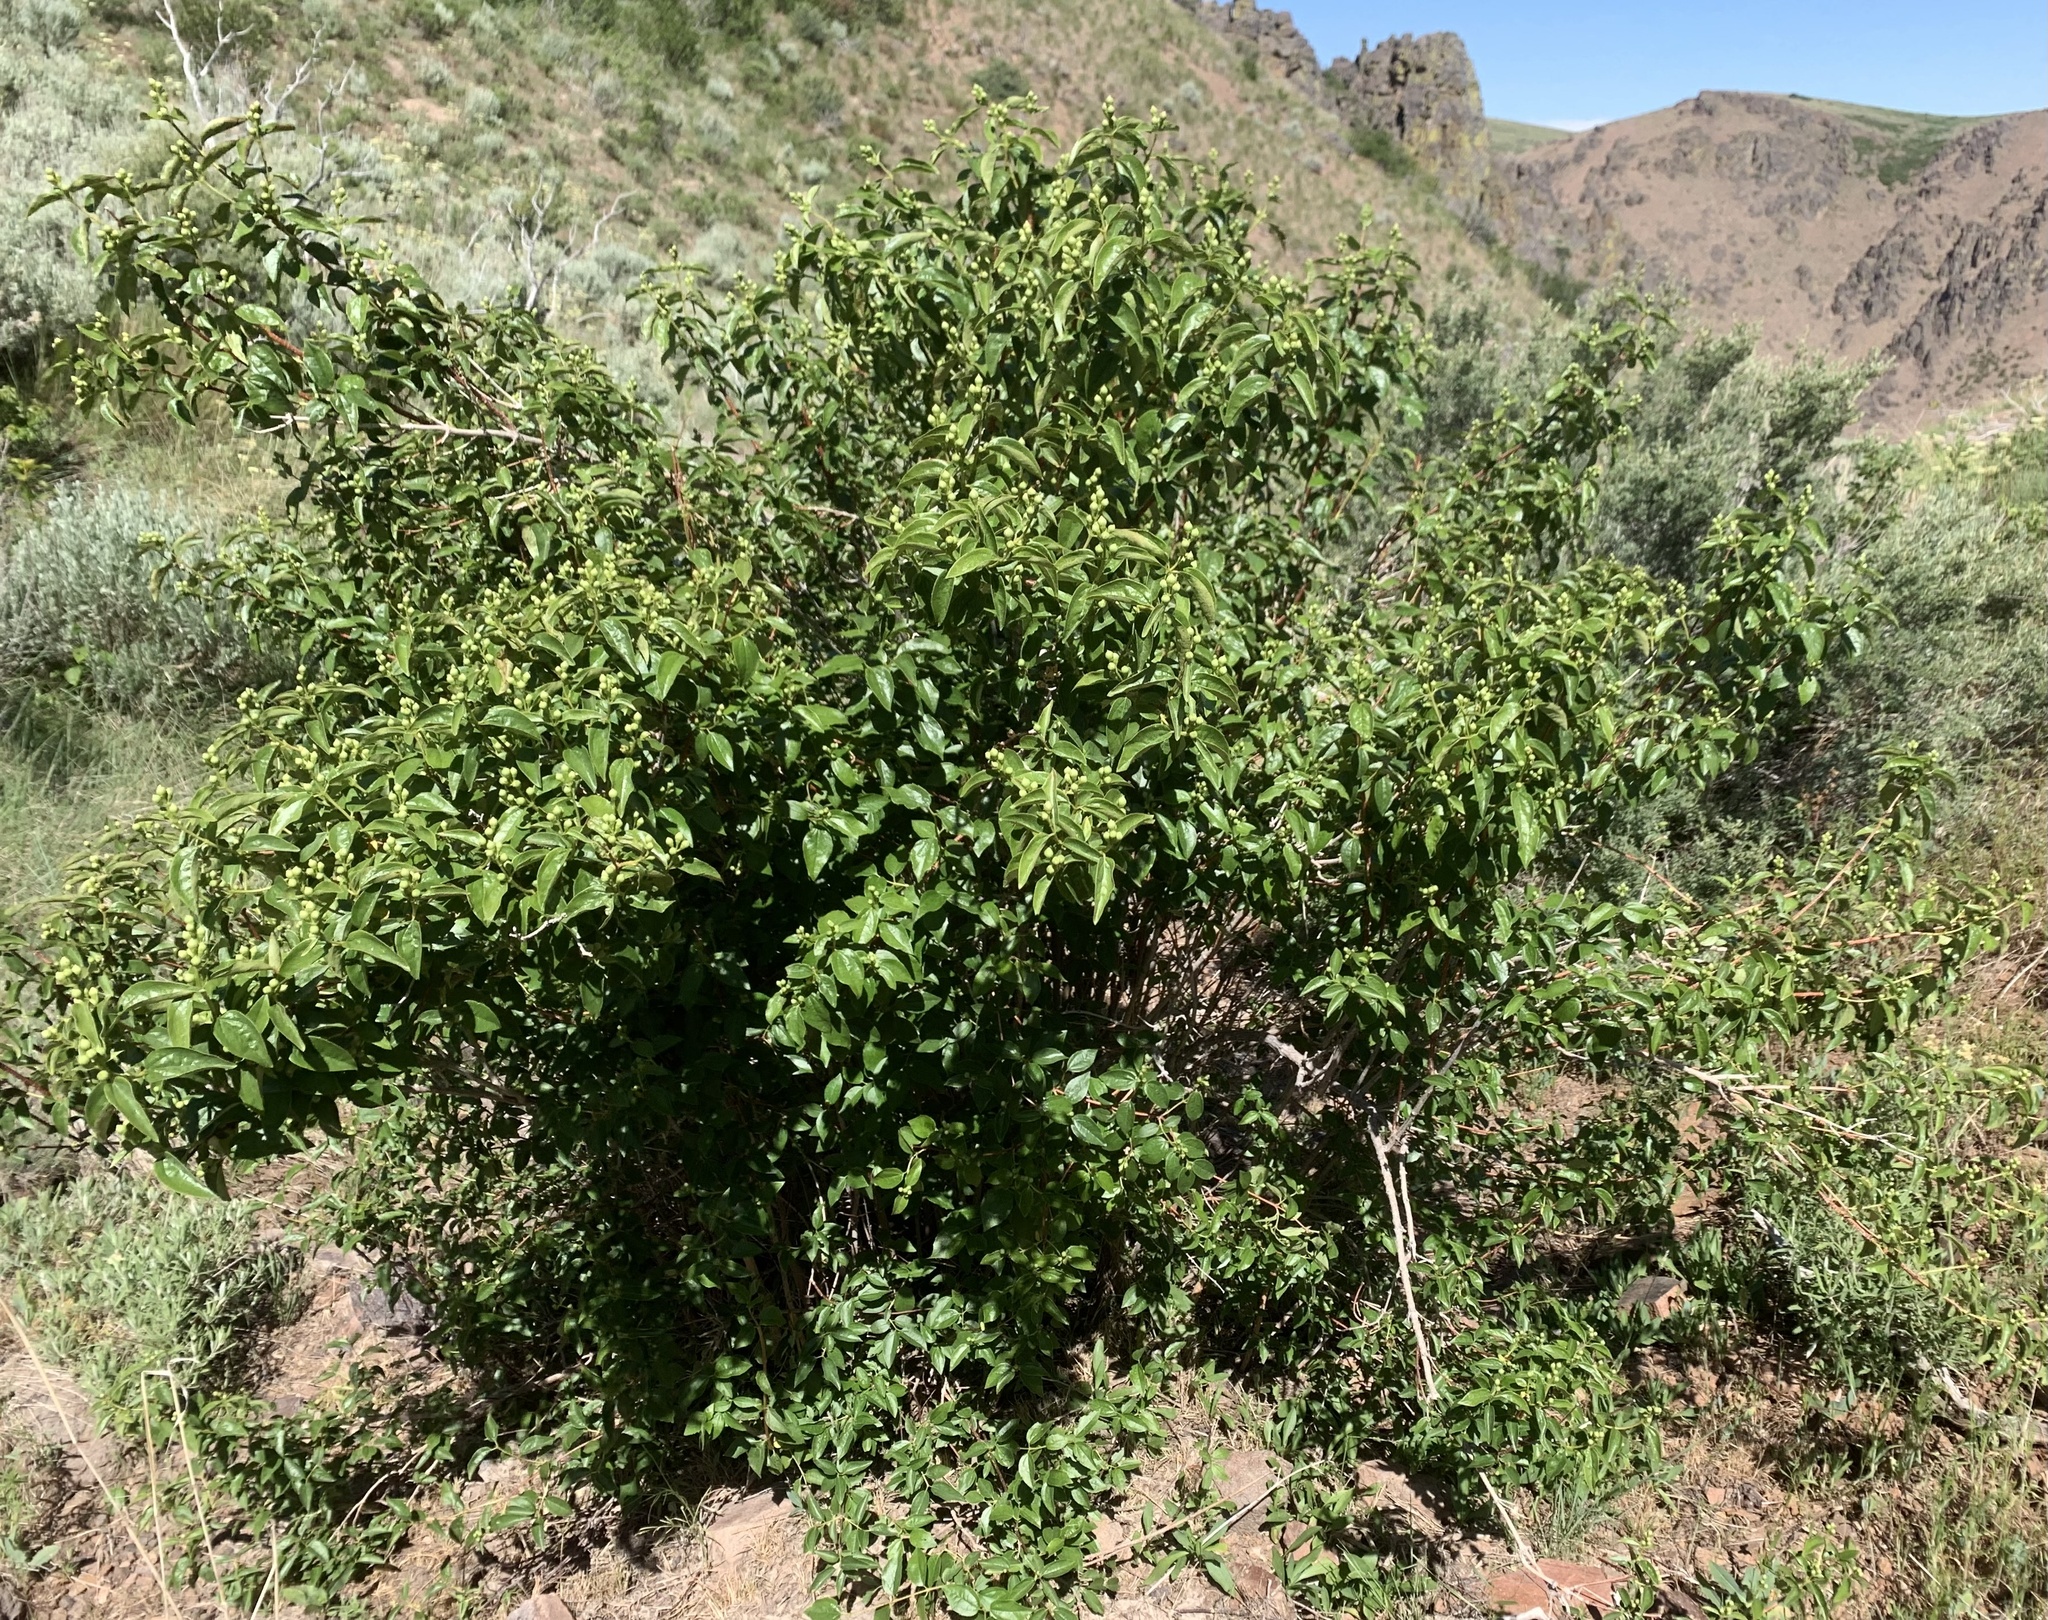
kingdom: Plantae
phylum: Tracheophyta
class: Magnoliopsida
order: Cornales
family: Hydrangeaceae
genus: Philadelphus
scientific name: Philadelphus lewisii
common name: Lewis's mock orange
